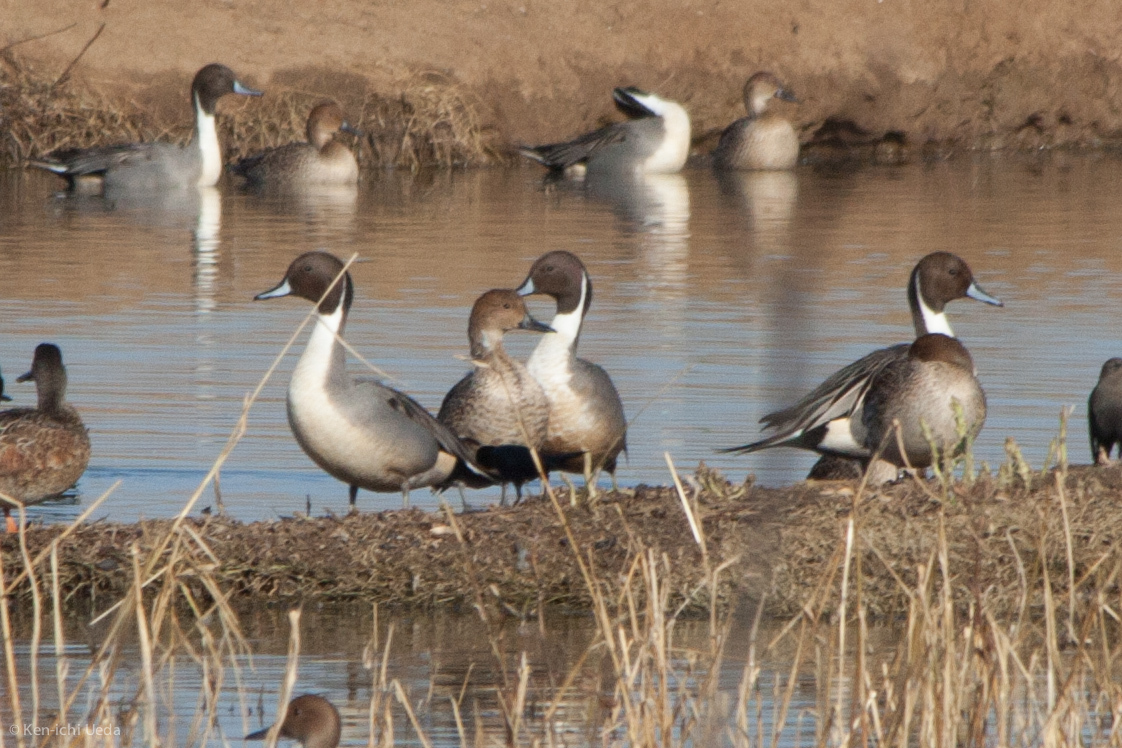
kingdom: Animalia
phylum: Chordata
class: Aves
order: Anseriformes
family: Anatidae
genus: Anas
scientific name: Anas acuta
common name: Northern pintail
